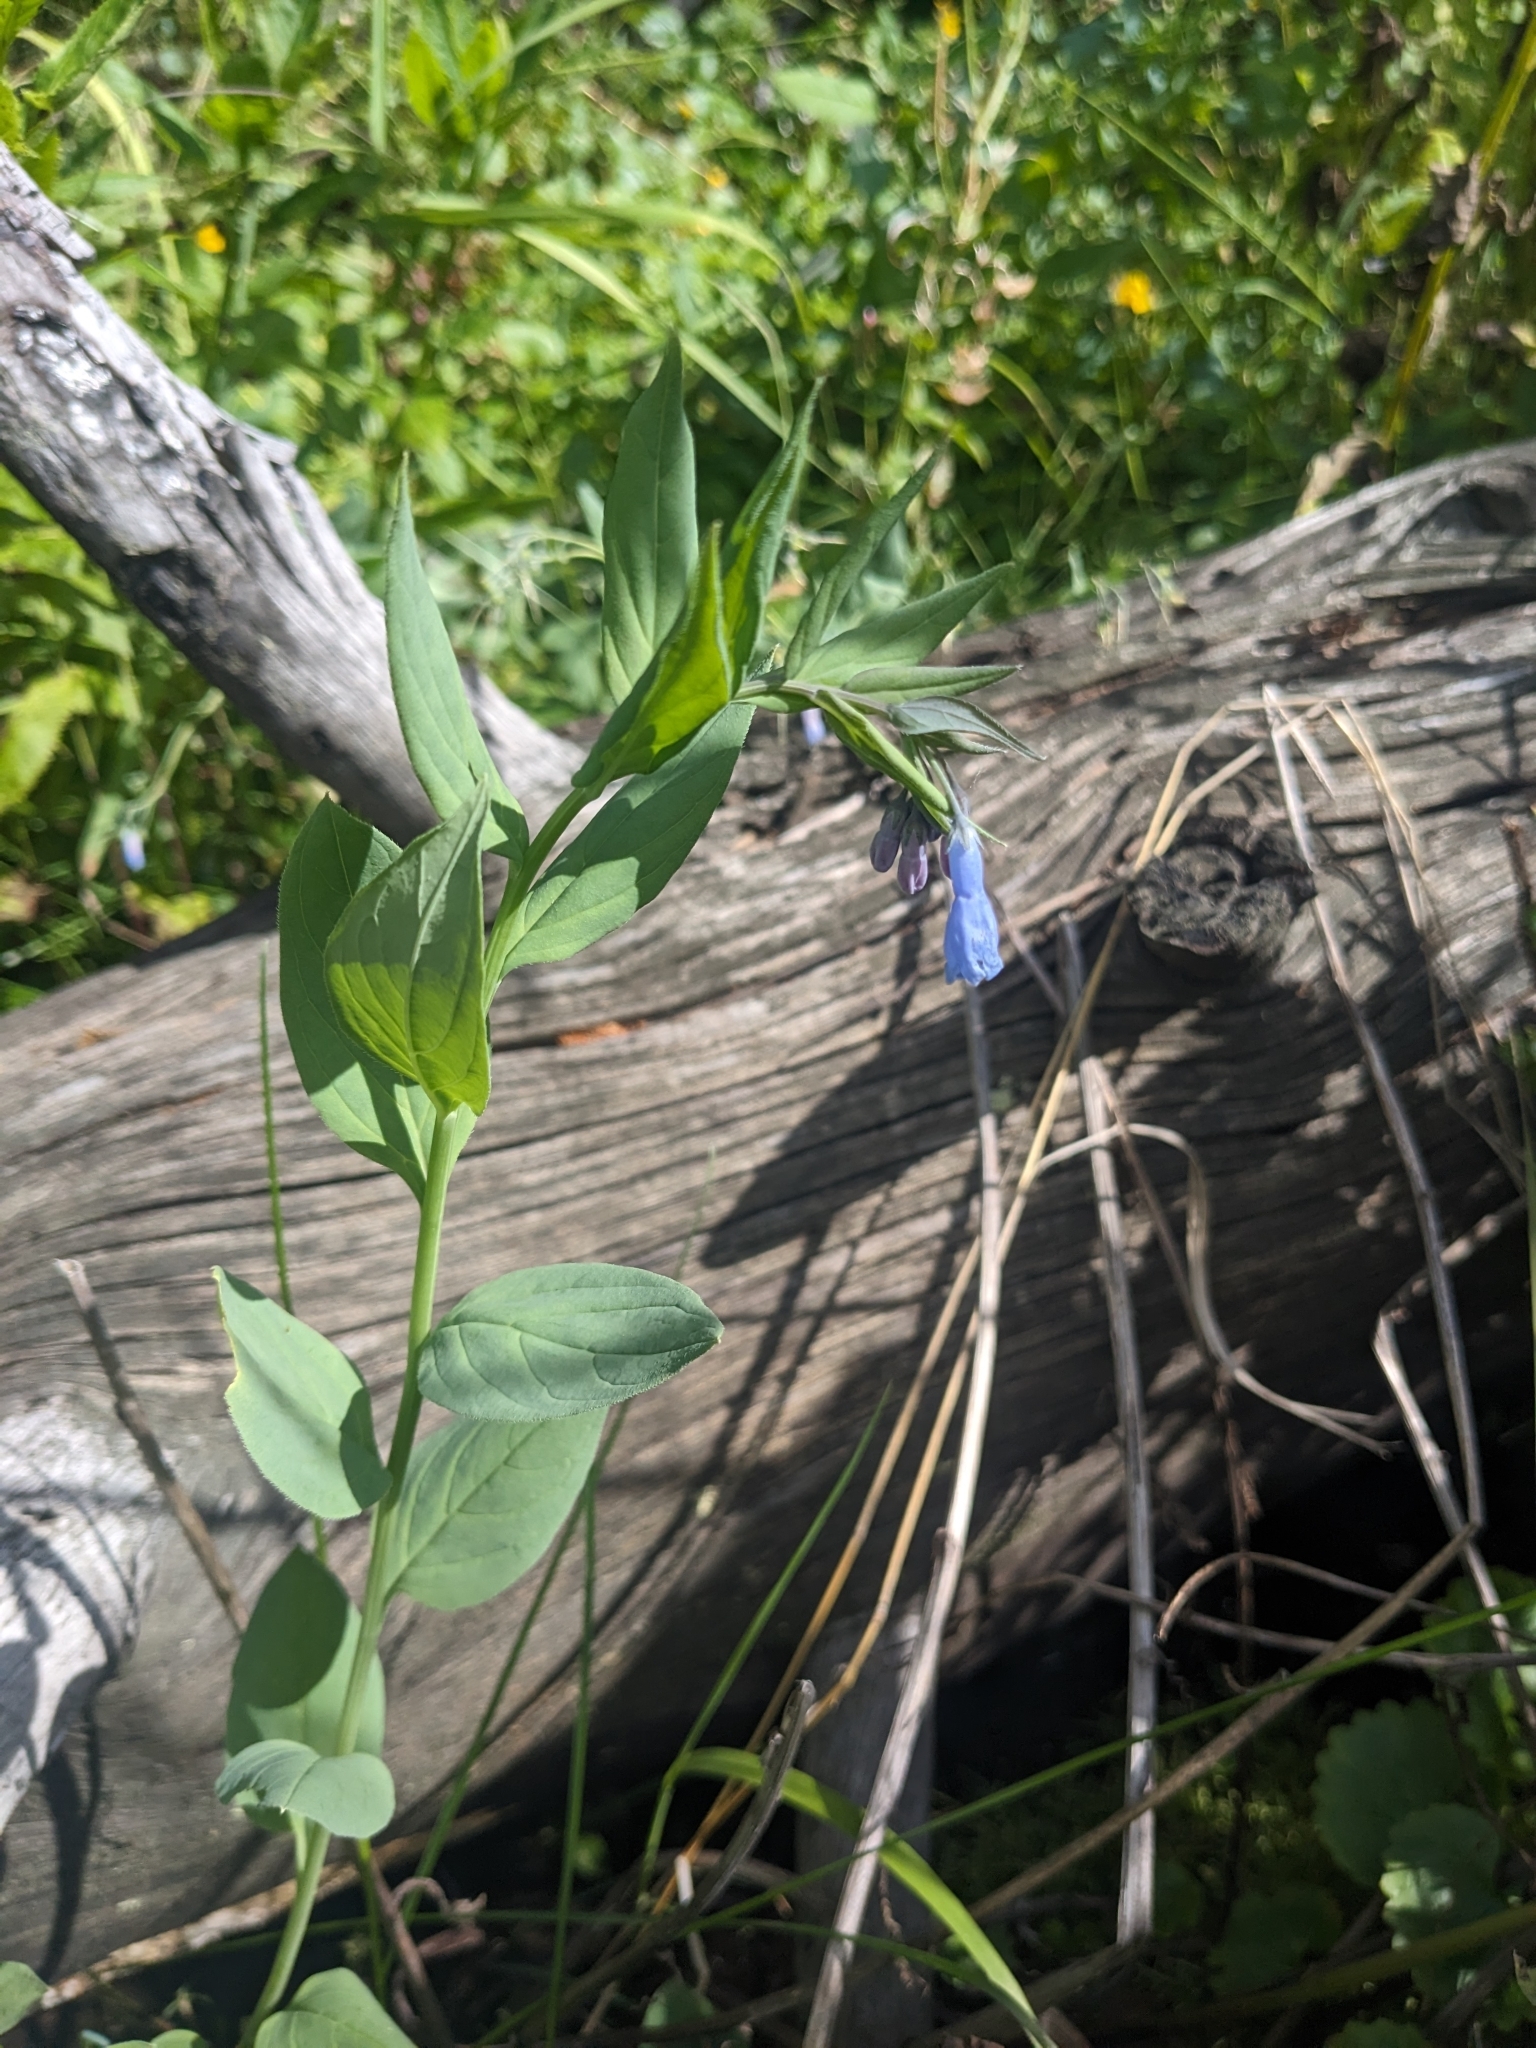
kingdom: Plantae
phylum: Tracheophyta
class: Magnoliopsida
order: Boraginales
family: Boraginaceae
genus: Mertensia
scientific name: Mertensia ciliata
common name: Tall chiming-bells
